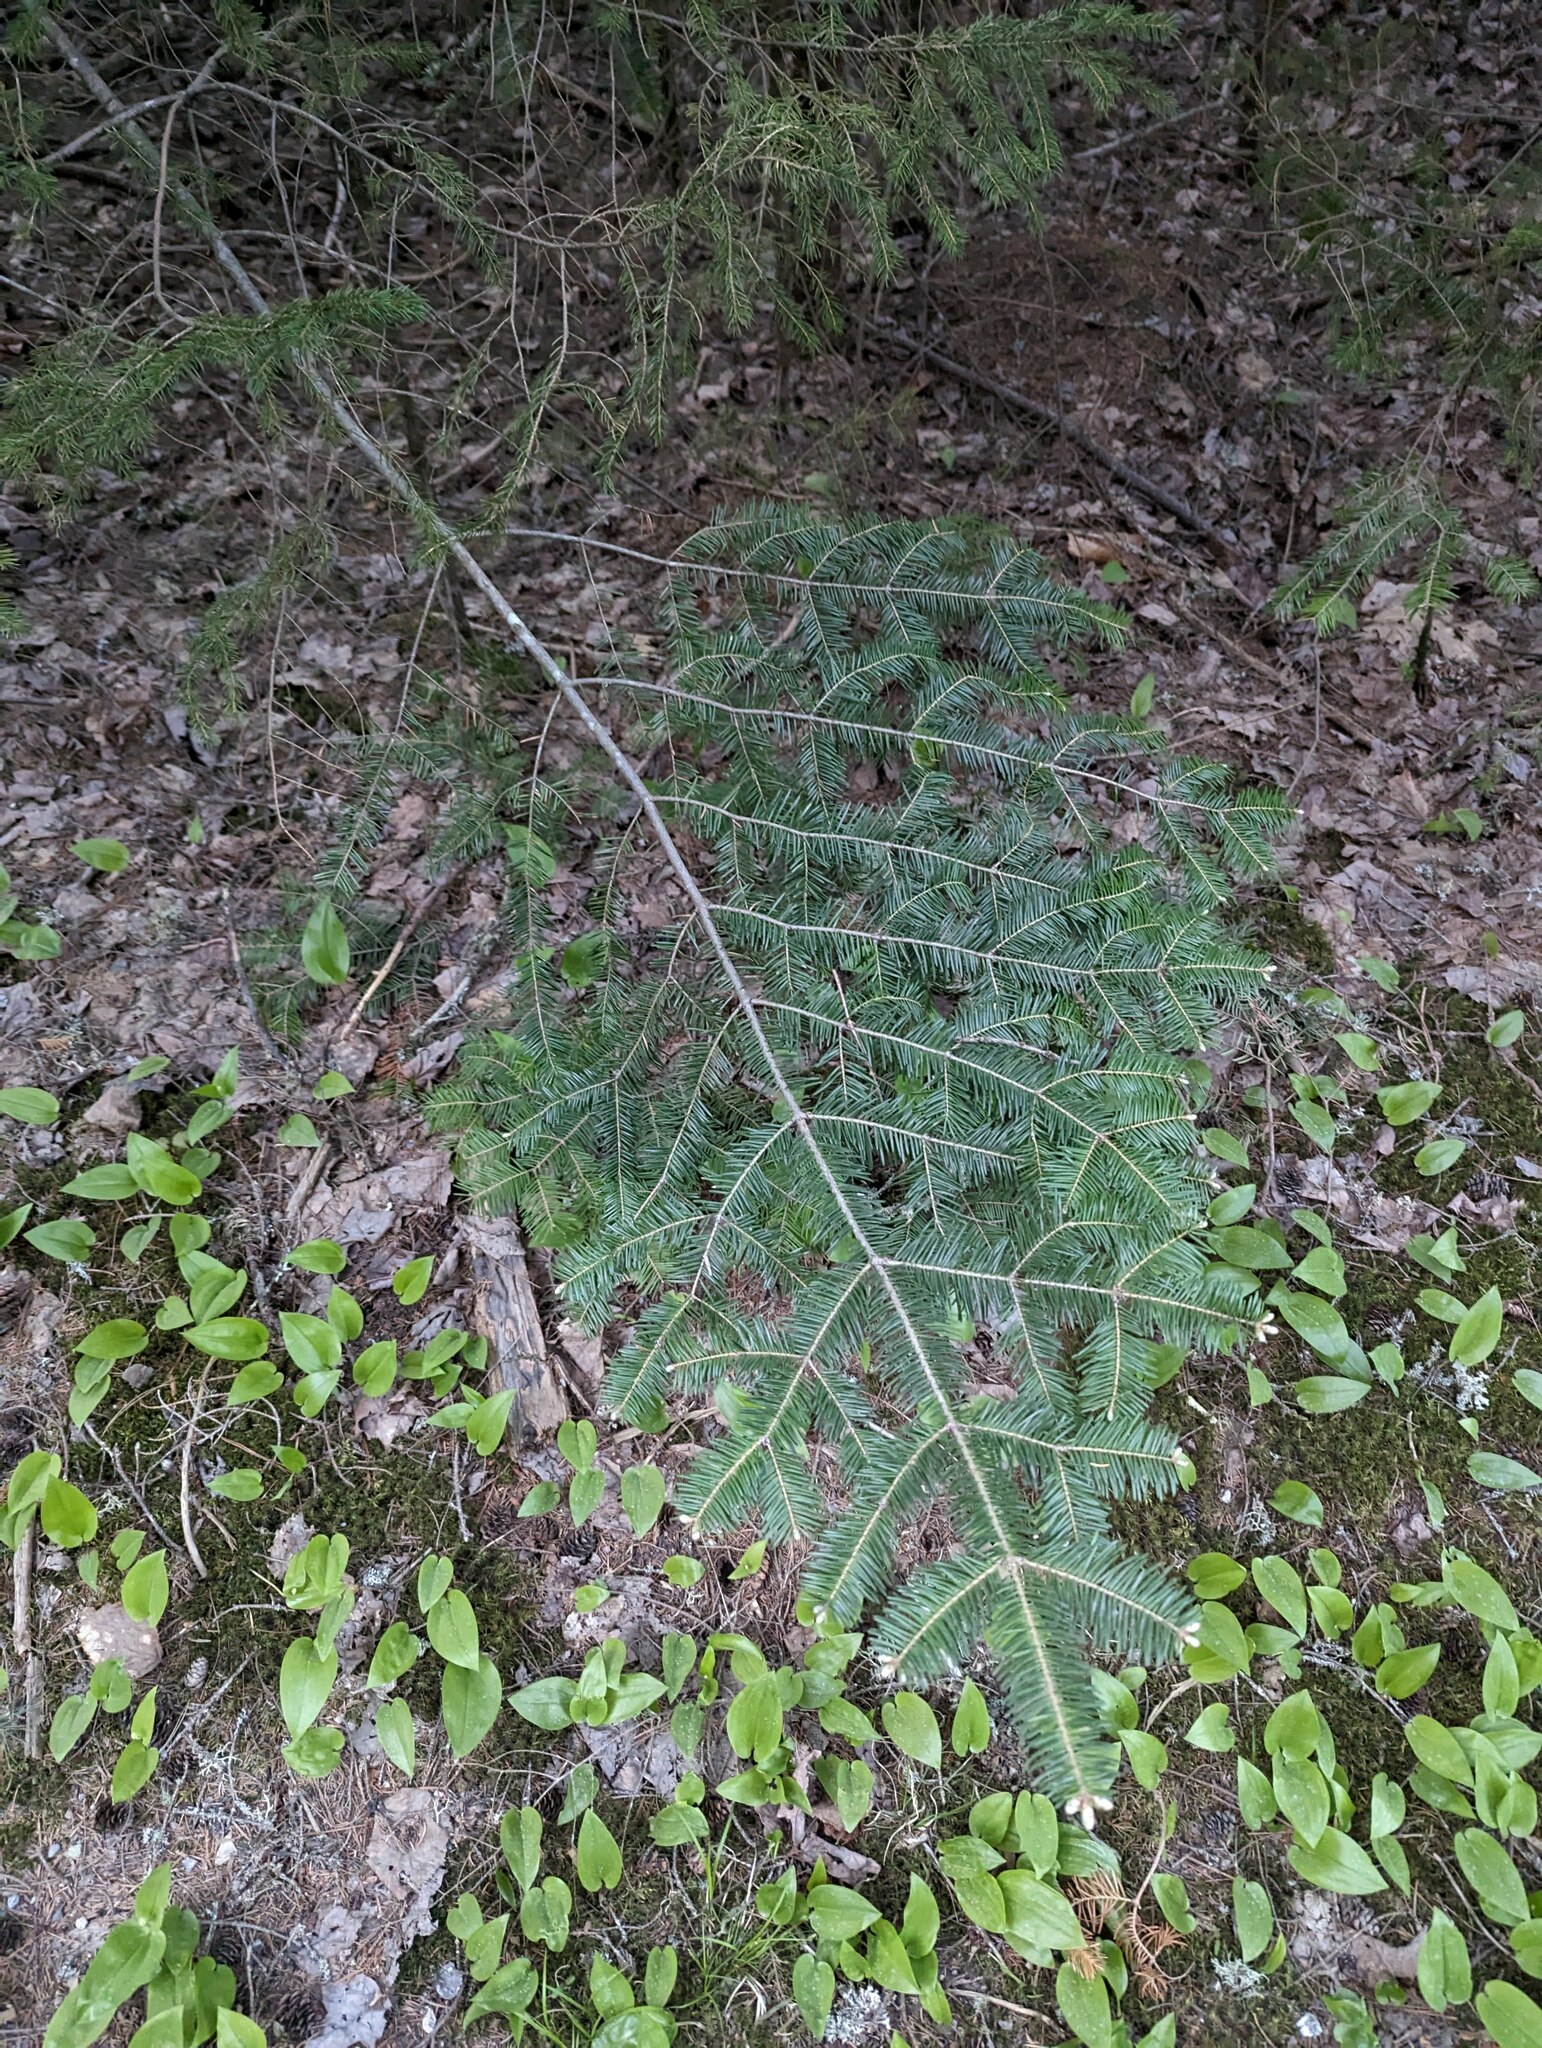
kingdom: Plantae
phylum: Tracheophyta
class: Pinopsida
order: Pinales
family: Pinaceae
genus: Abies
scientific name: Abies balsamea
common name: Balsam fir
